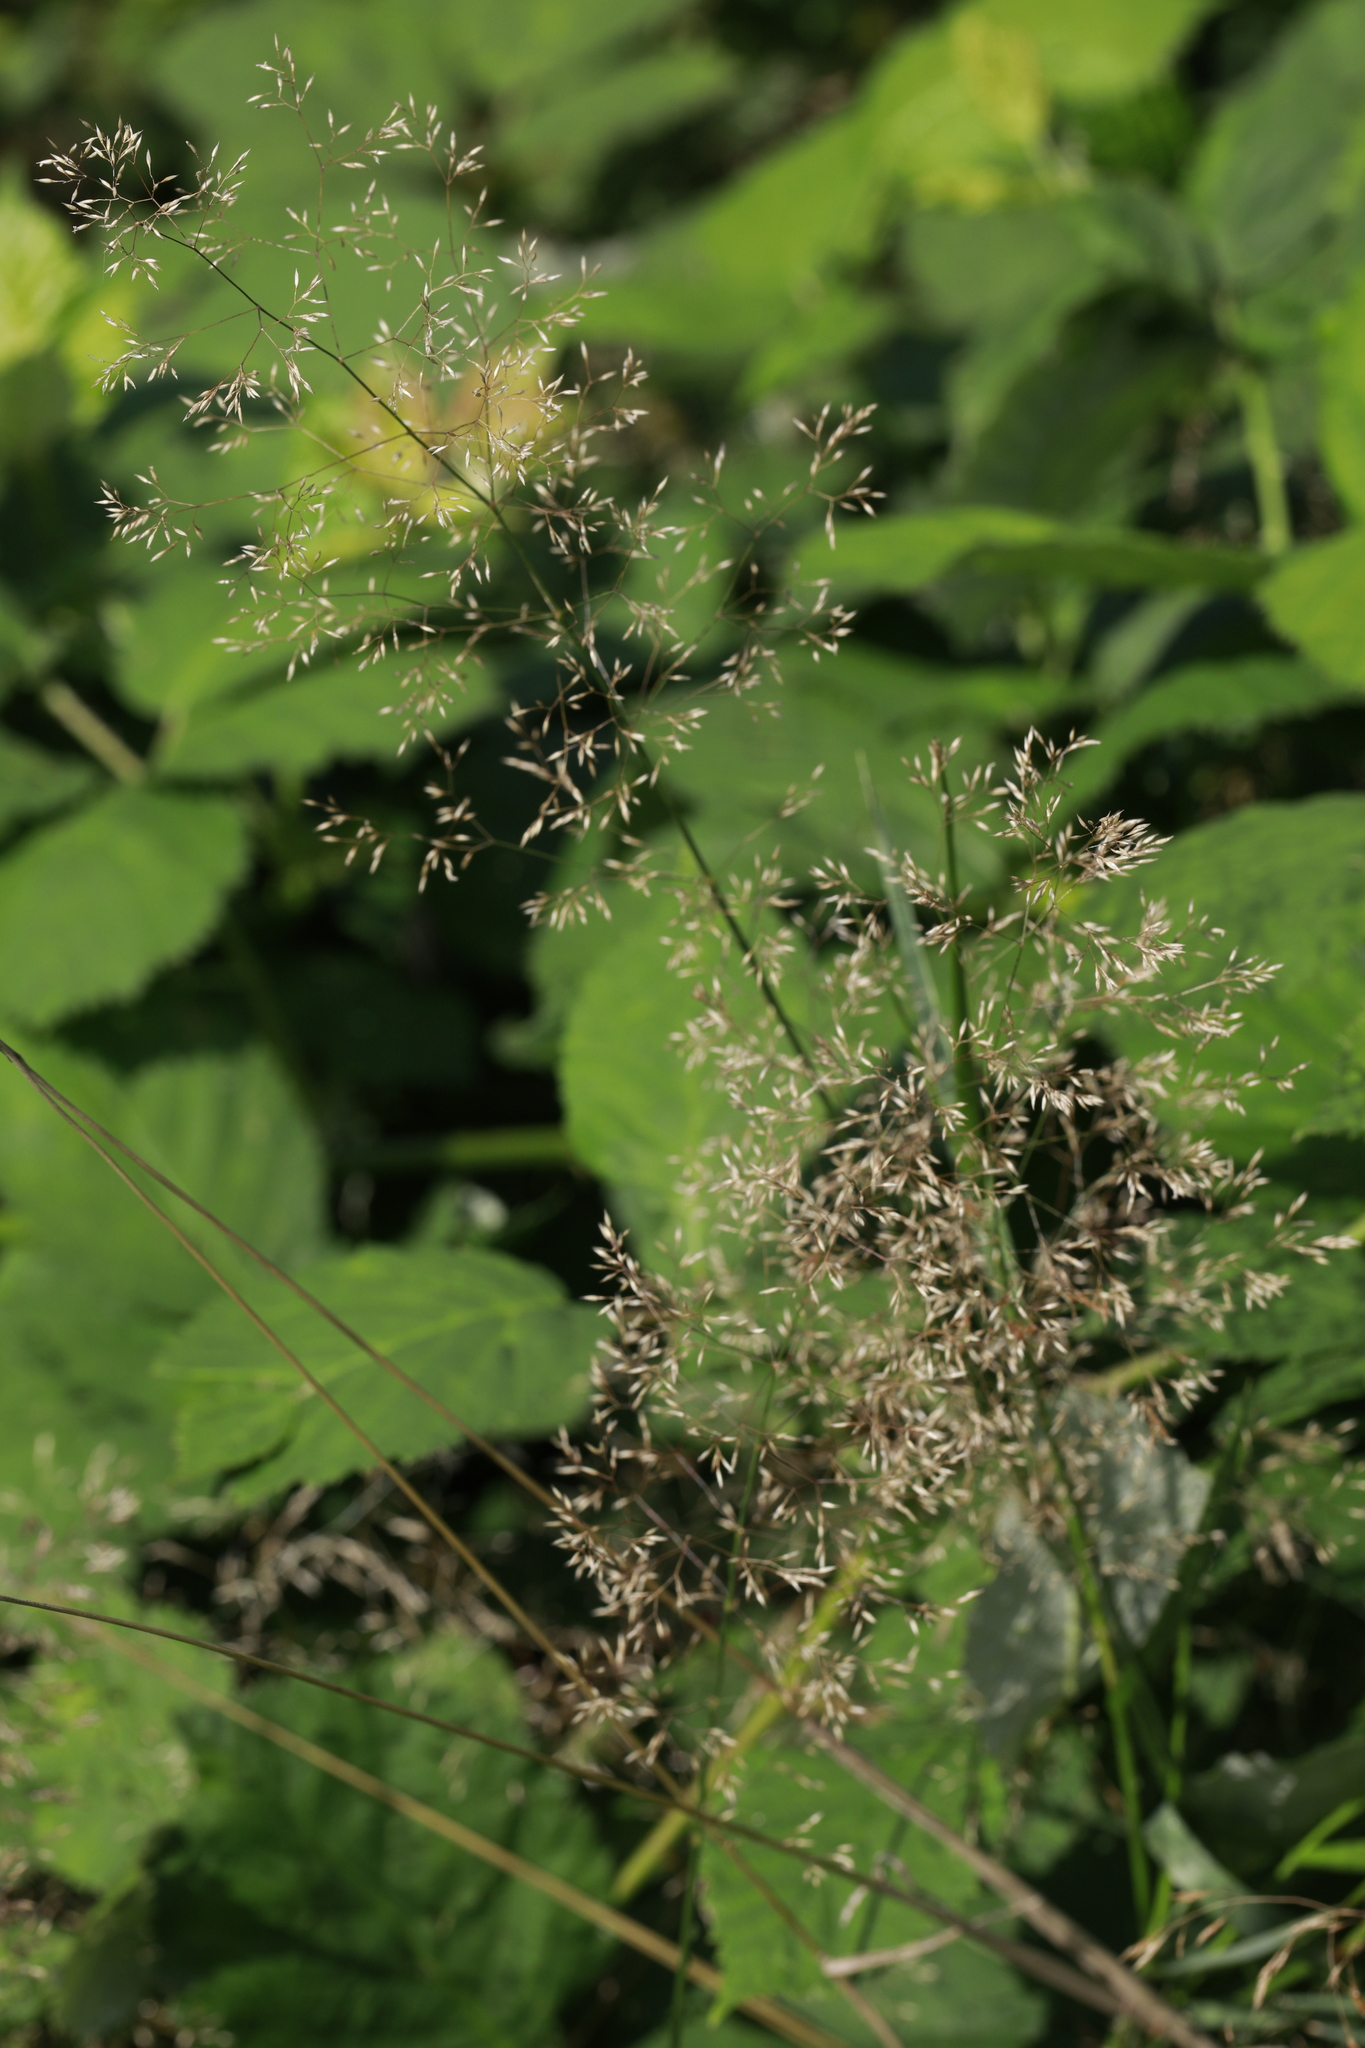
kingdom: Plantae
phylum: Tracheophyta
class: Liliopsida
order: Poales
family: Poaceae
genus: Agrostis
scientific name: Agrostis capillaris
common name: Colonial bentgrass
